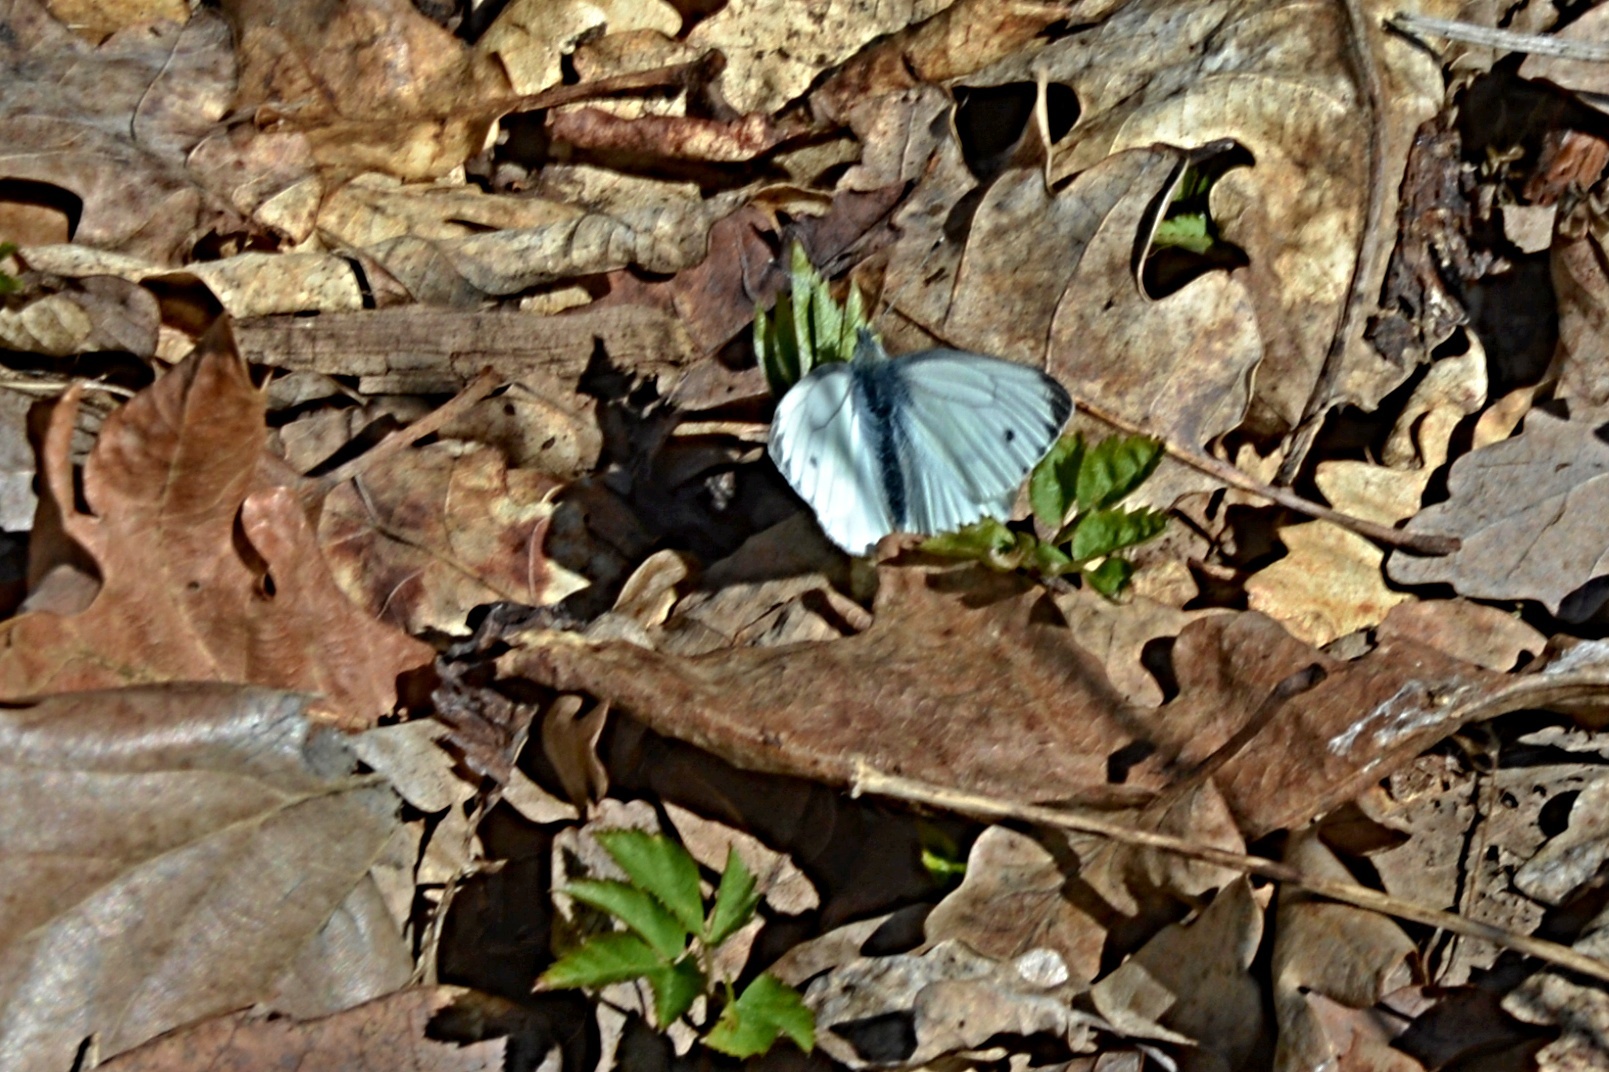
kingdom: Animalia
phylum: Arthropoda
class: Insecta
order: Lepidoptera
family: Pieridae
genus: Pieris
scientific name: Pieris napi
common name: Green-veined white
